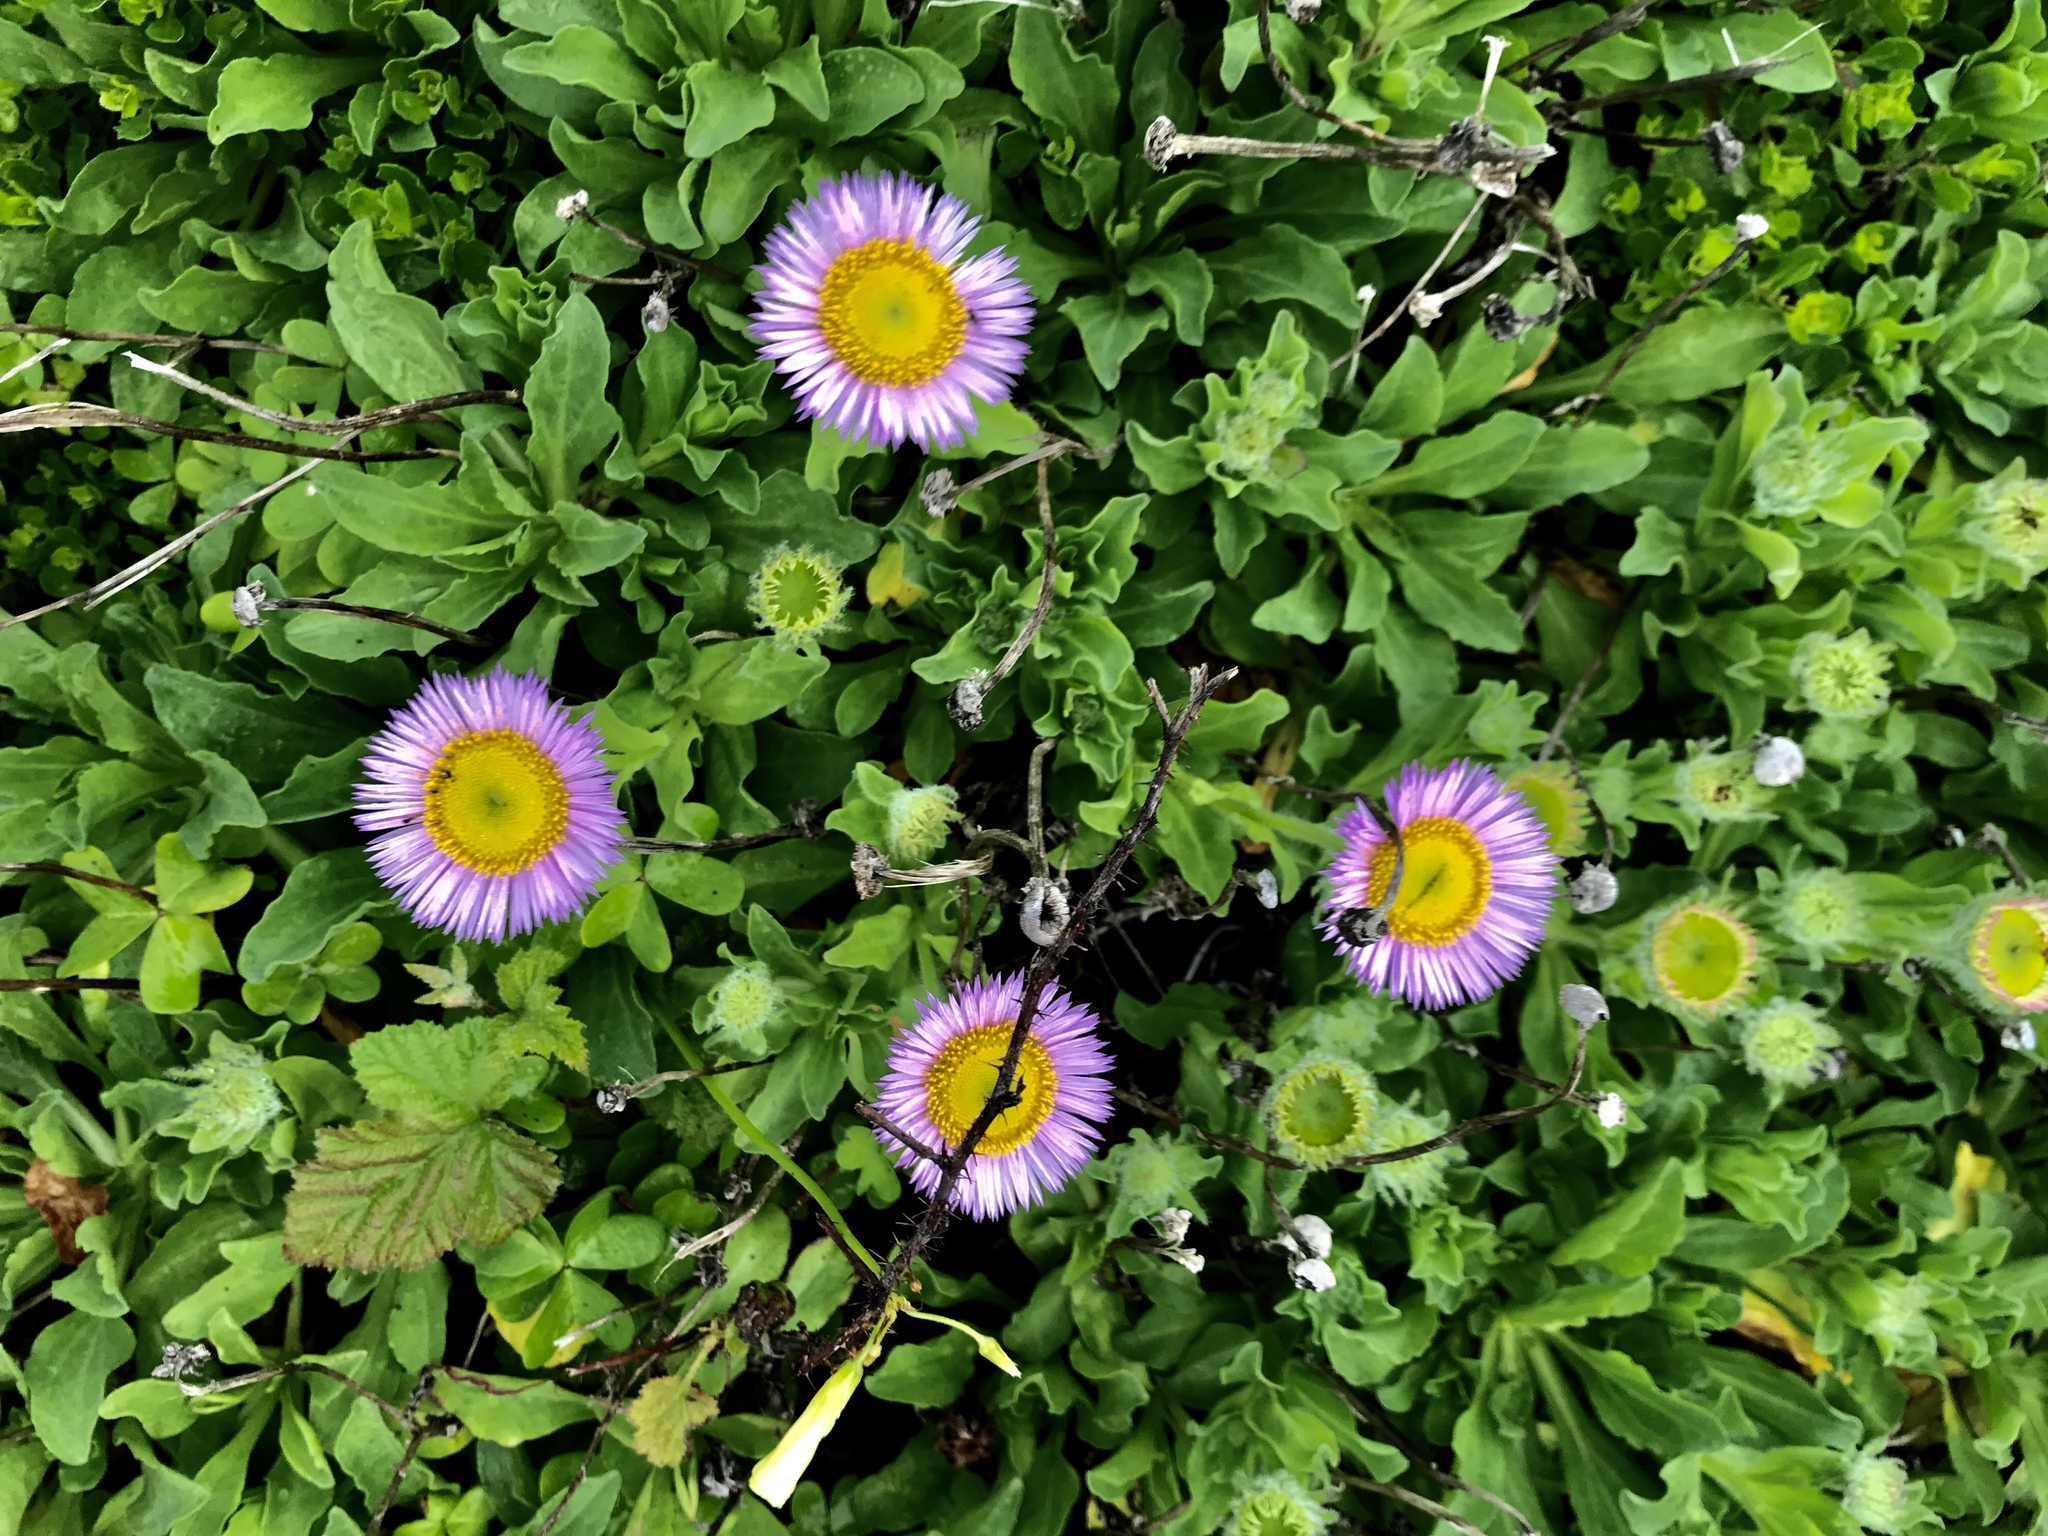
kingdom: Plantae
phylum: Tracheophyta
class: Magnoliopsida
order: Asterales
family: Asteraceae
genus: Erigeron
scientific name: Erigeron glaucus
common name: Seaside daisy
